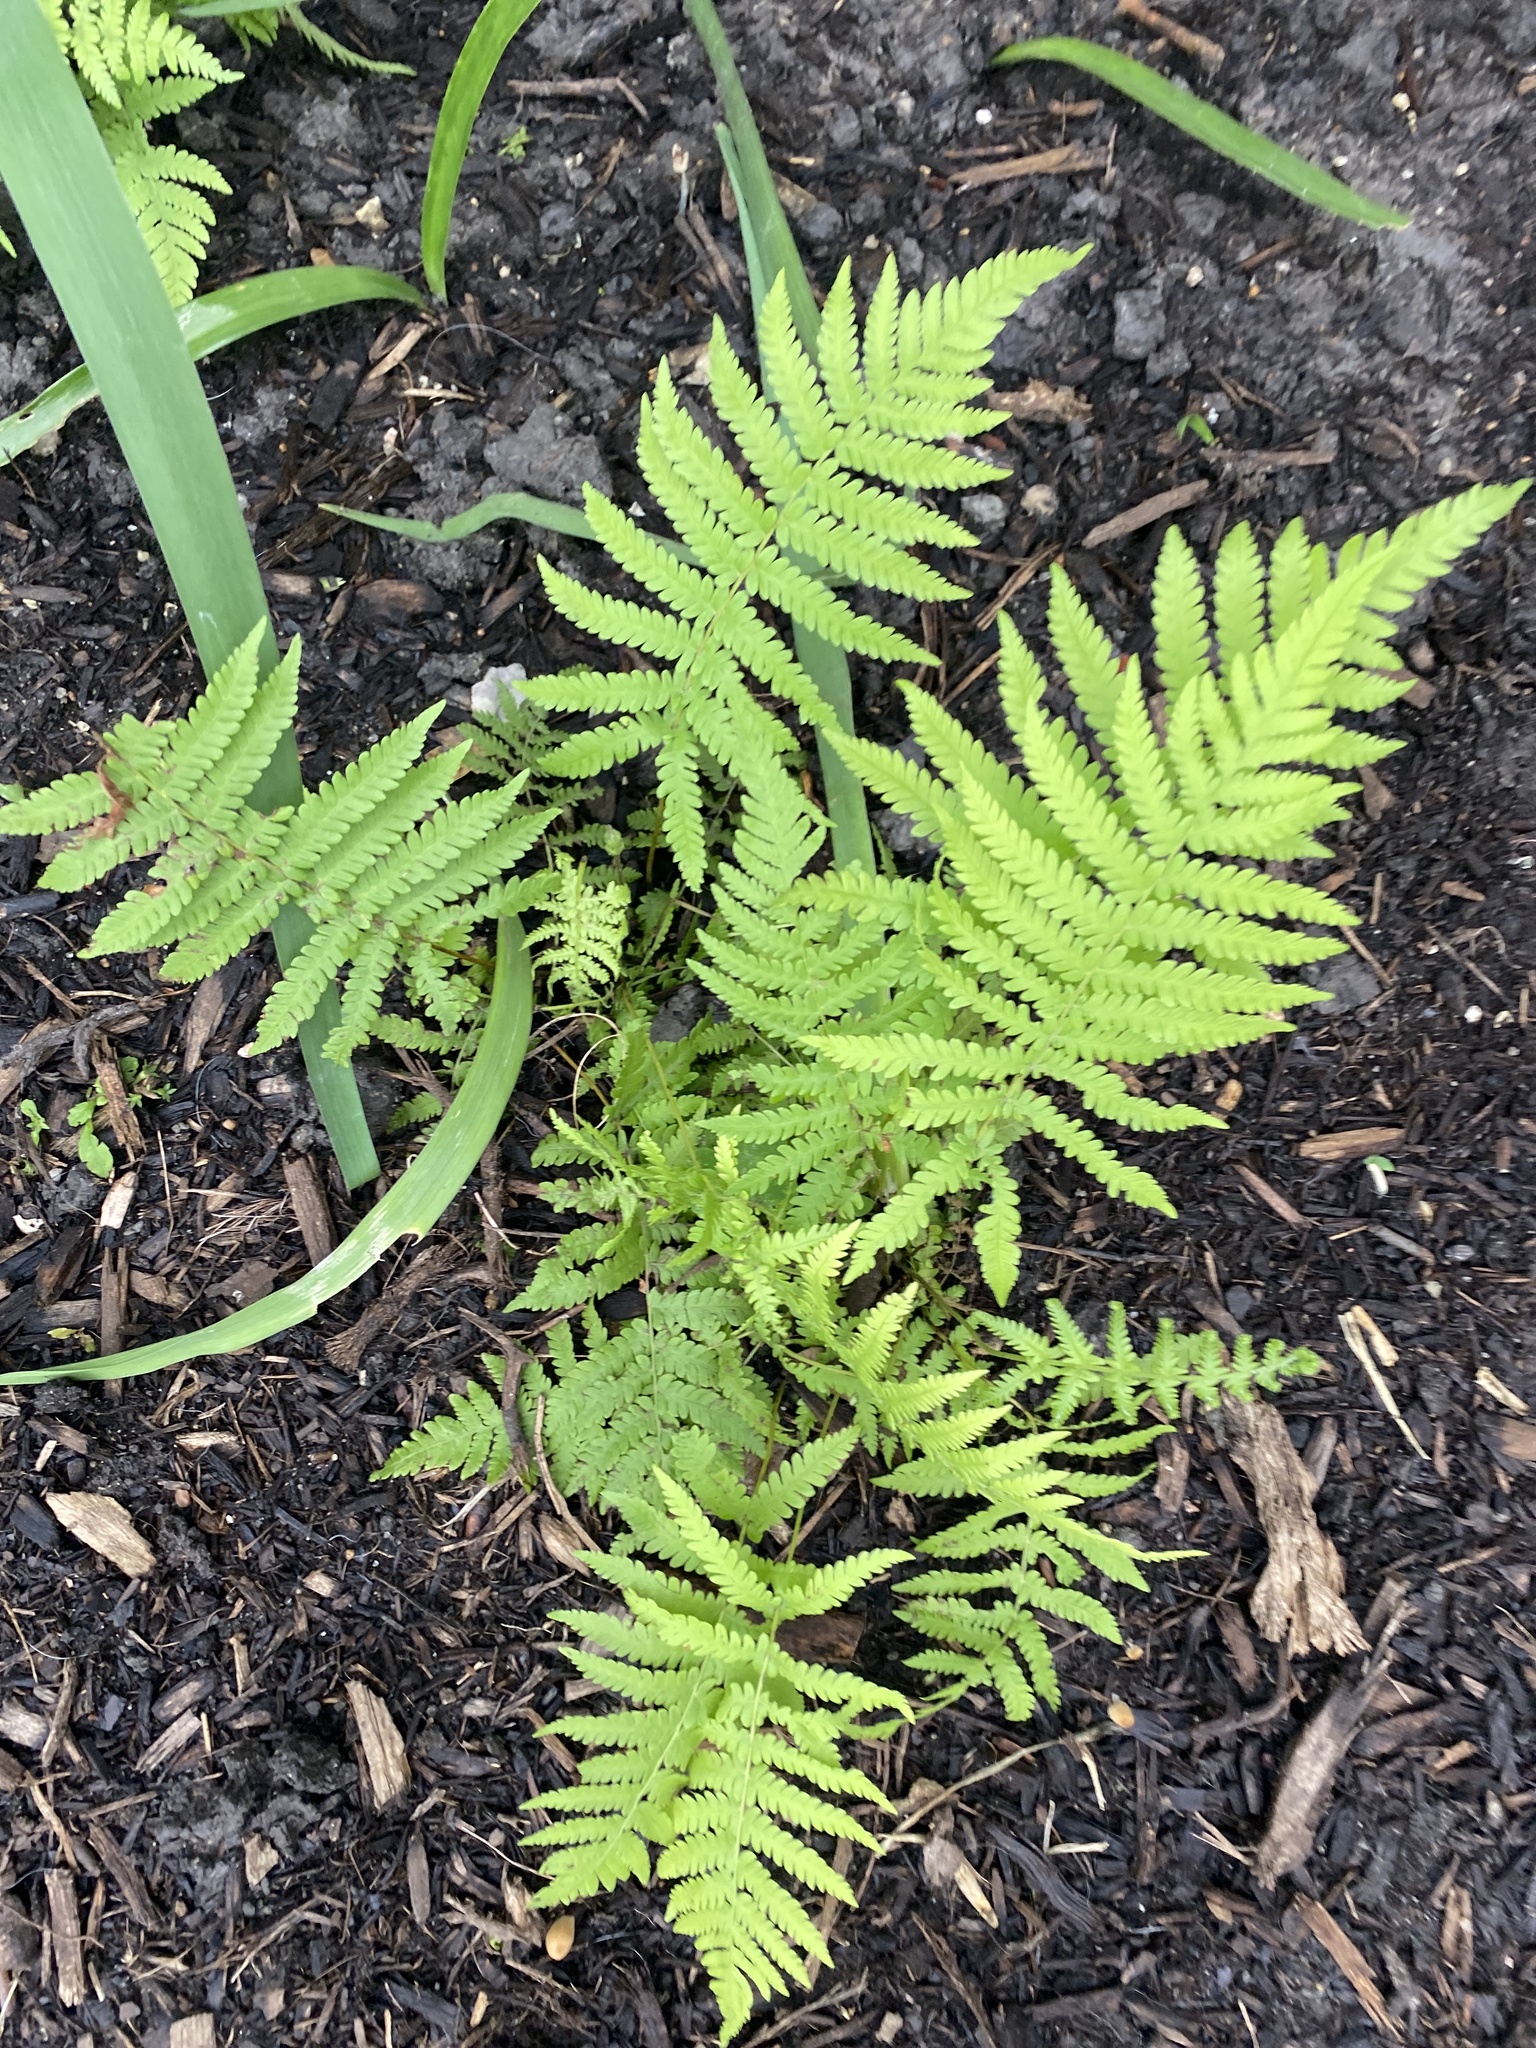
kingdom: Plantae
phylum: Tracheophyta
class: Polypodiopsida
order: Polypodiales
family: Thelypteridaceae
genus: Pelazoneuron
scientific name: Pelazoneuron kunthii
